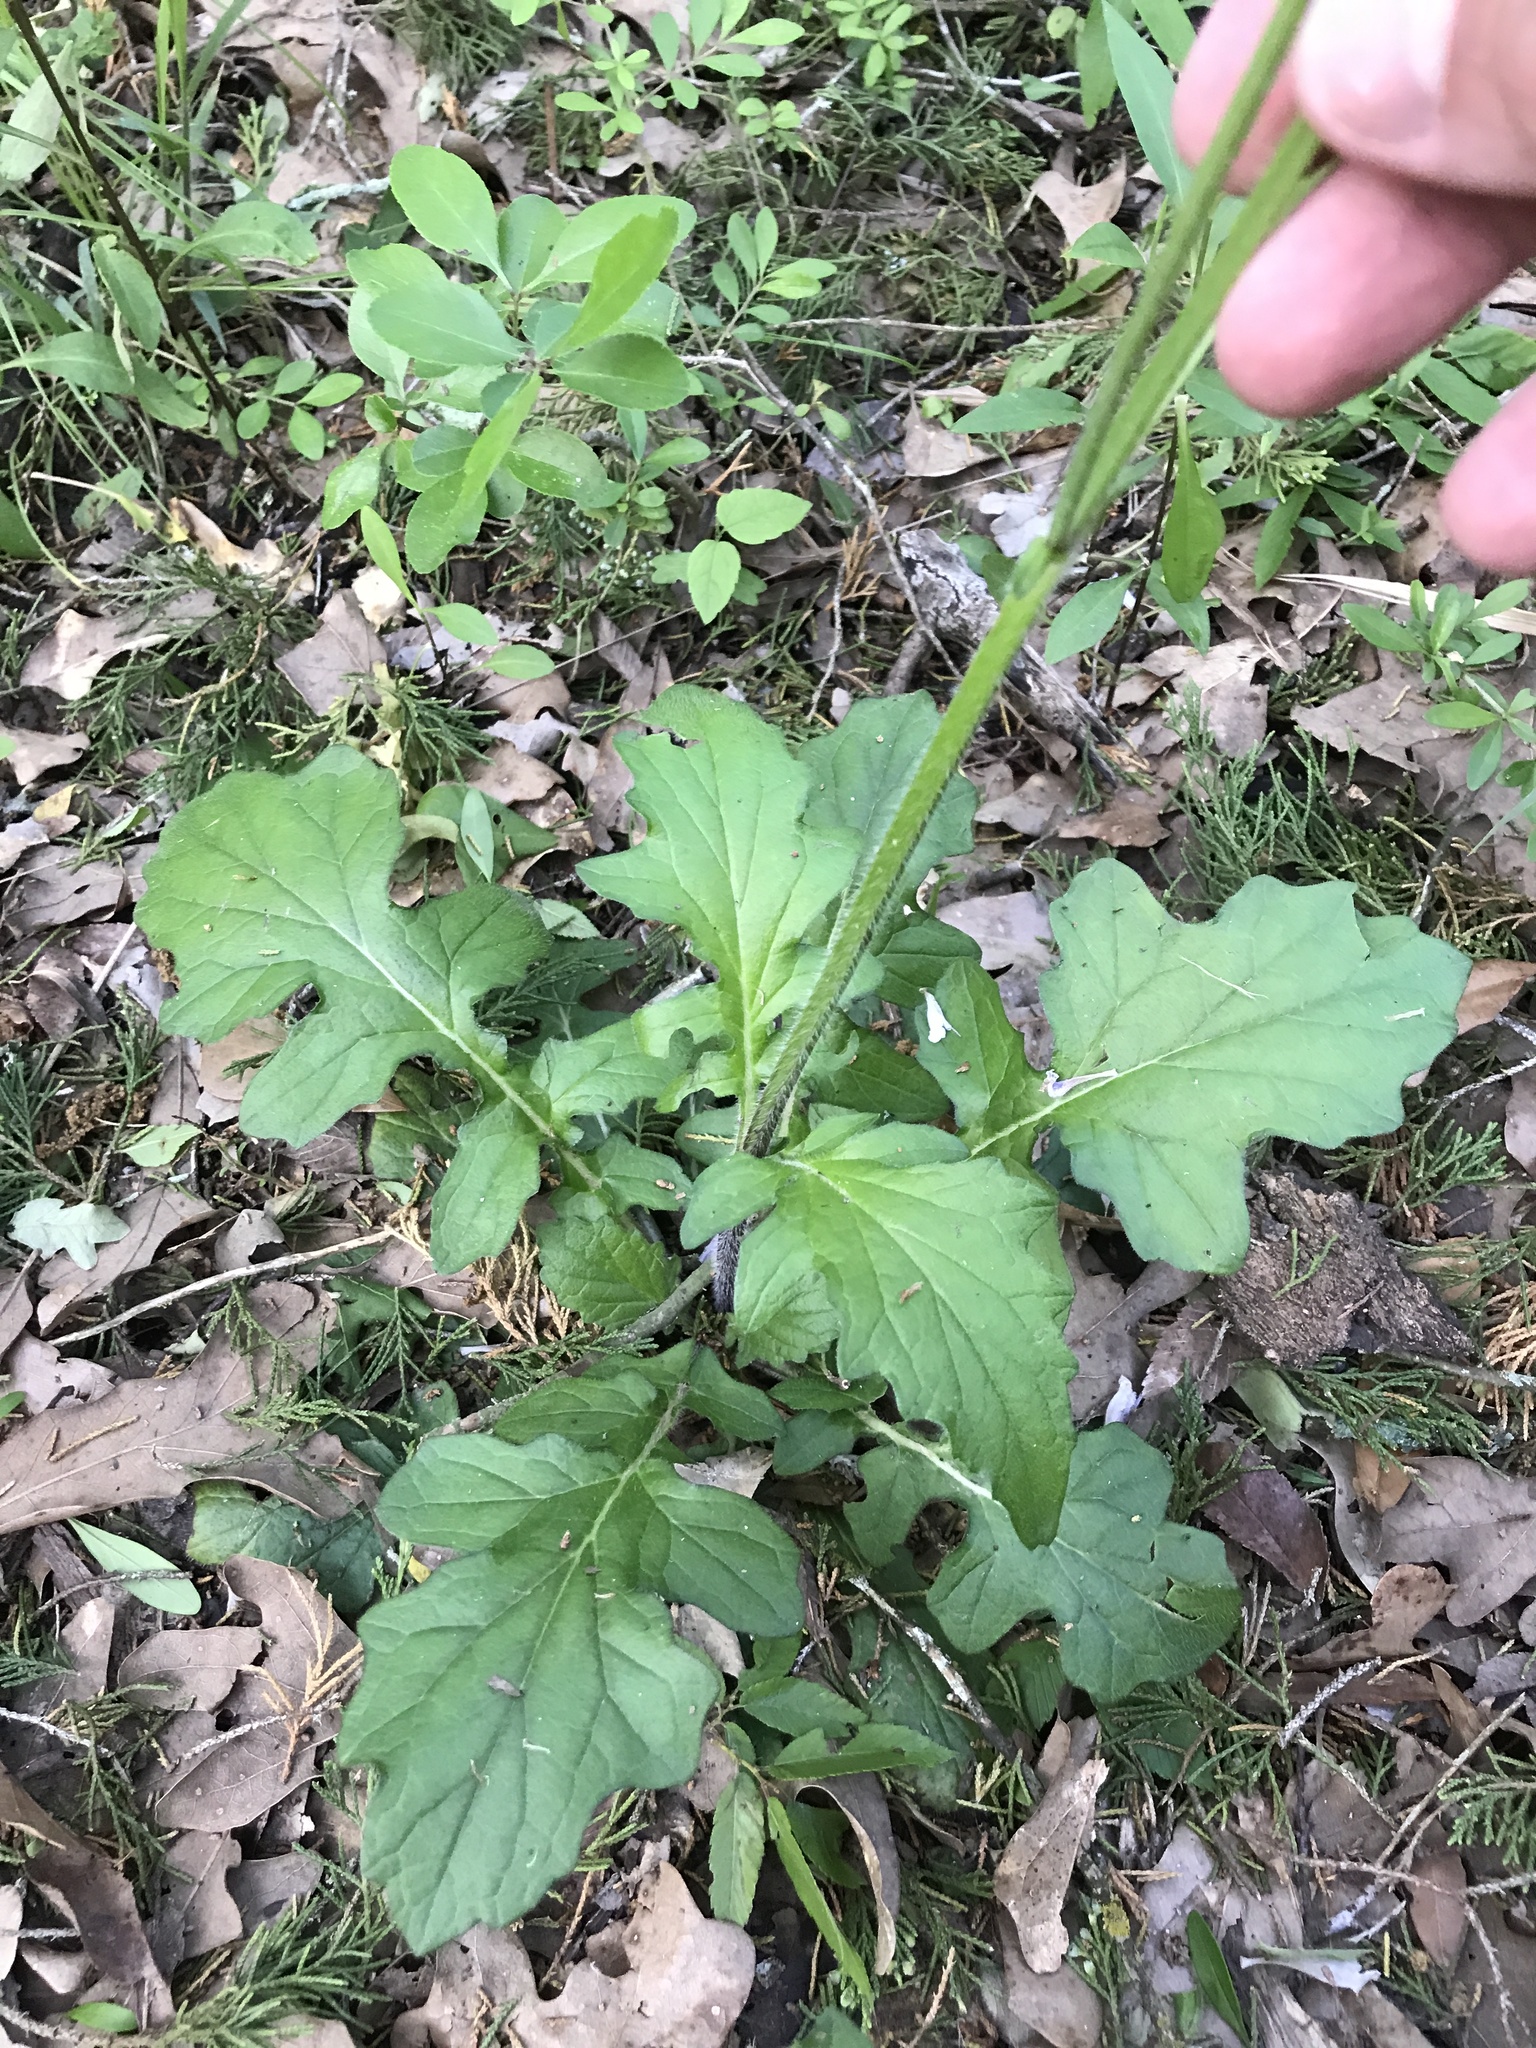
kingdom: Plantae
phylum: Tracheophyta
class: Magnoliopsida
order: Lamiales
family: Lamiaceae
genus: Salvia
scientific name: Salvia lyrata
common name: Cancerweed
